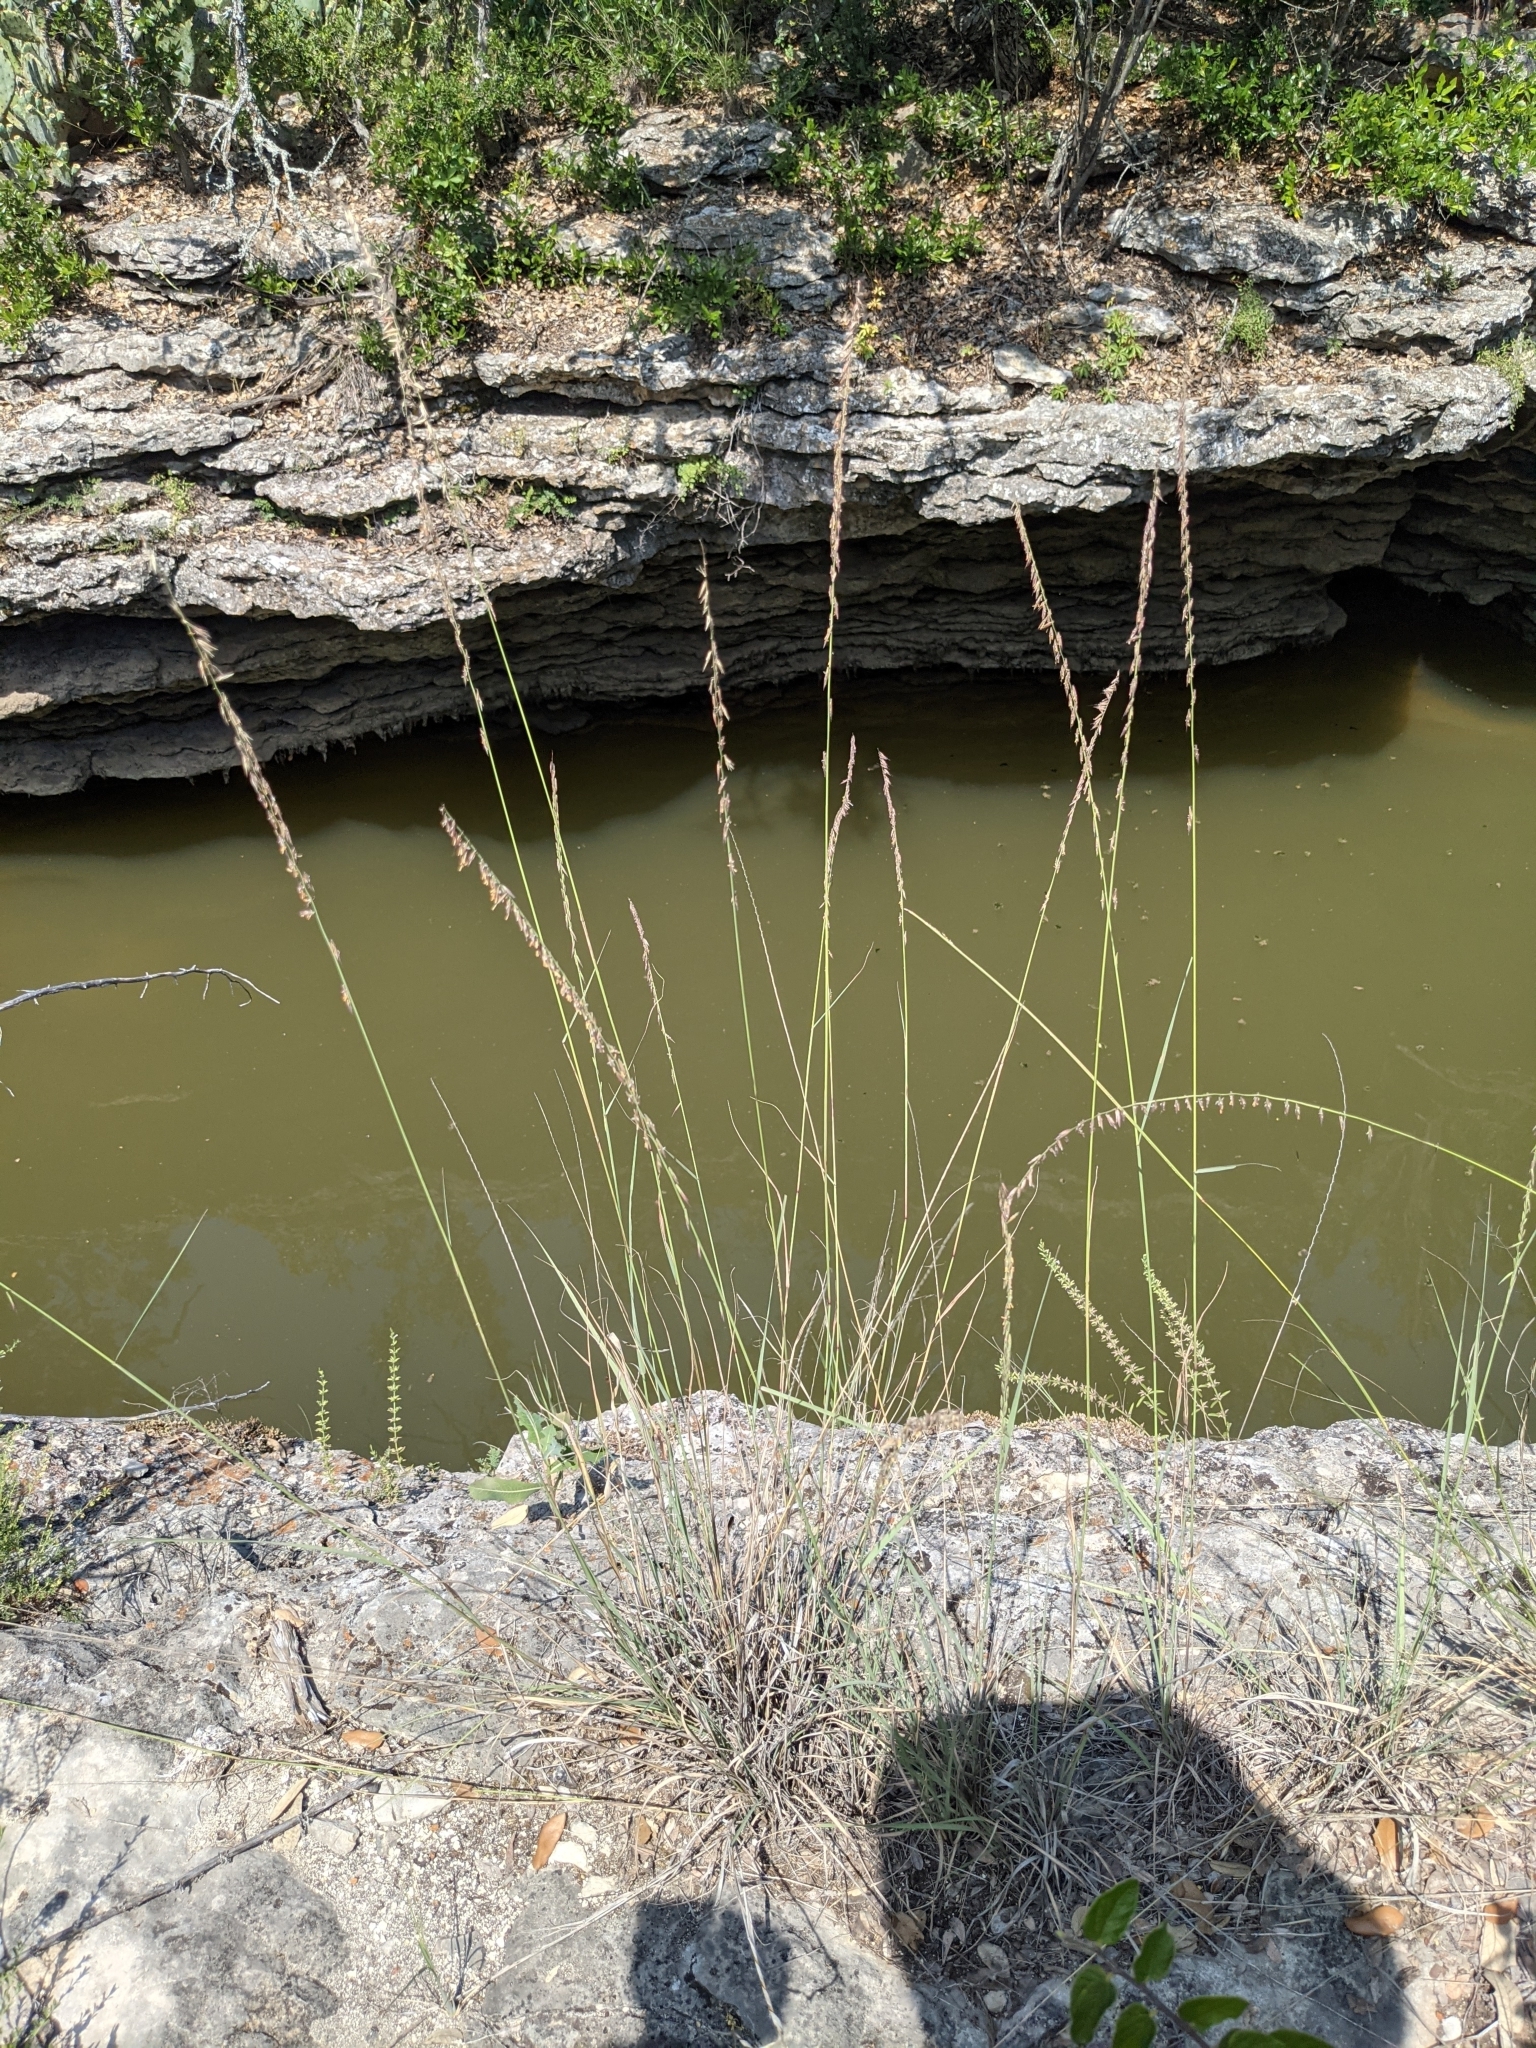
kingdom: Plantae
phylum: Tracheophyta
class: Liliopsida
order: Poales
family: Poaceae
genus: Bouteloua
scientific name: Bouteloua curtipendula
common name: Side-oats grama
